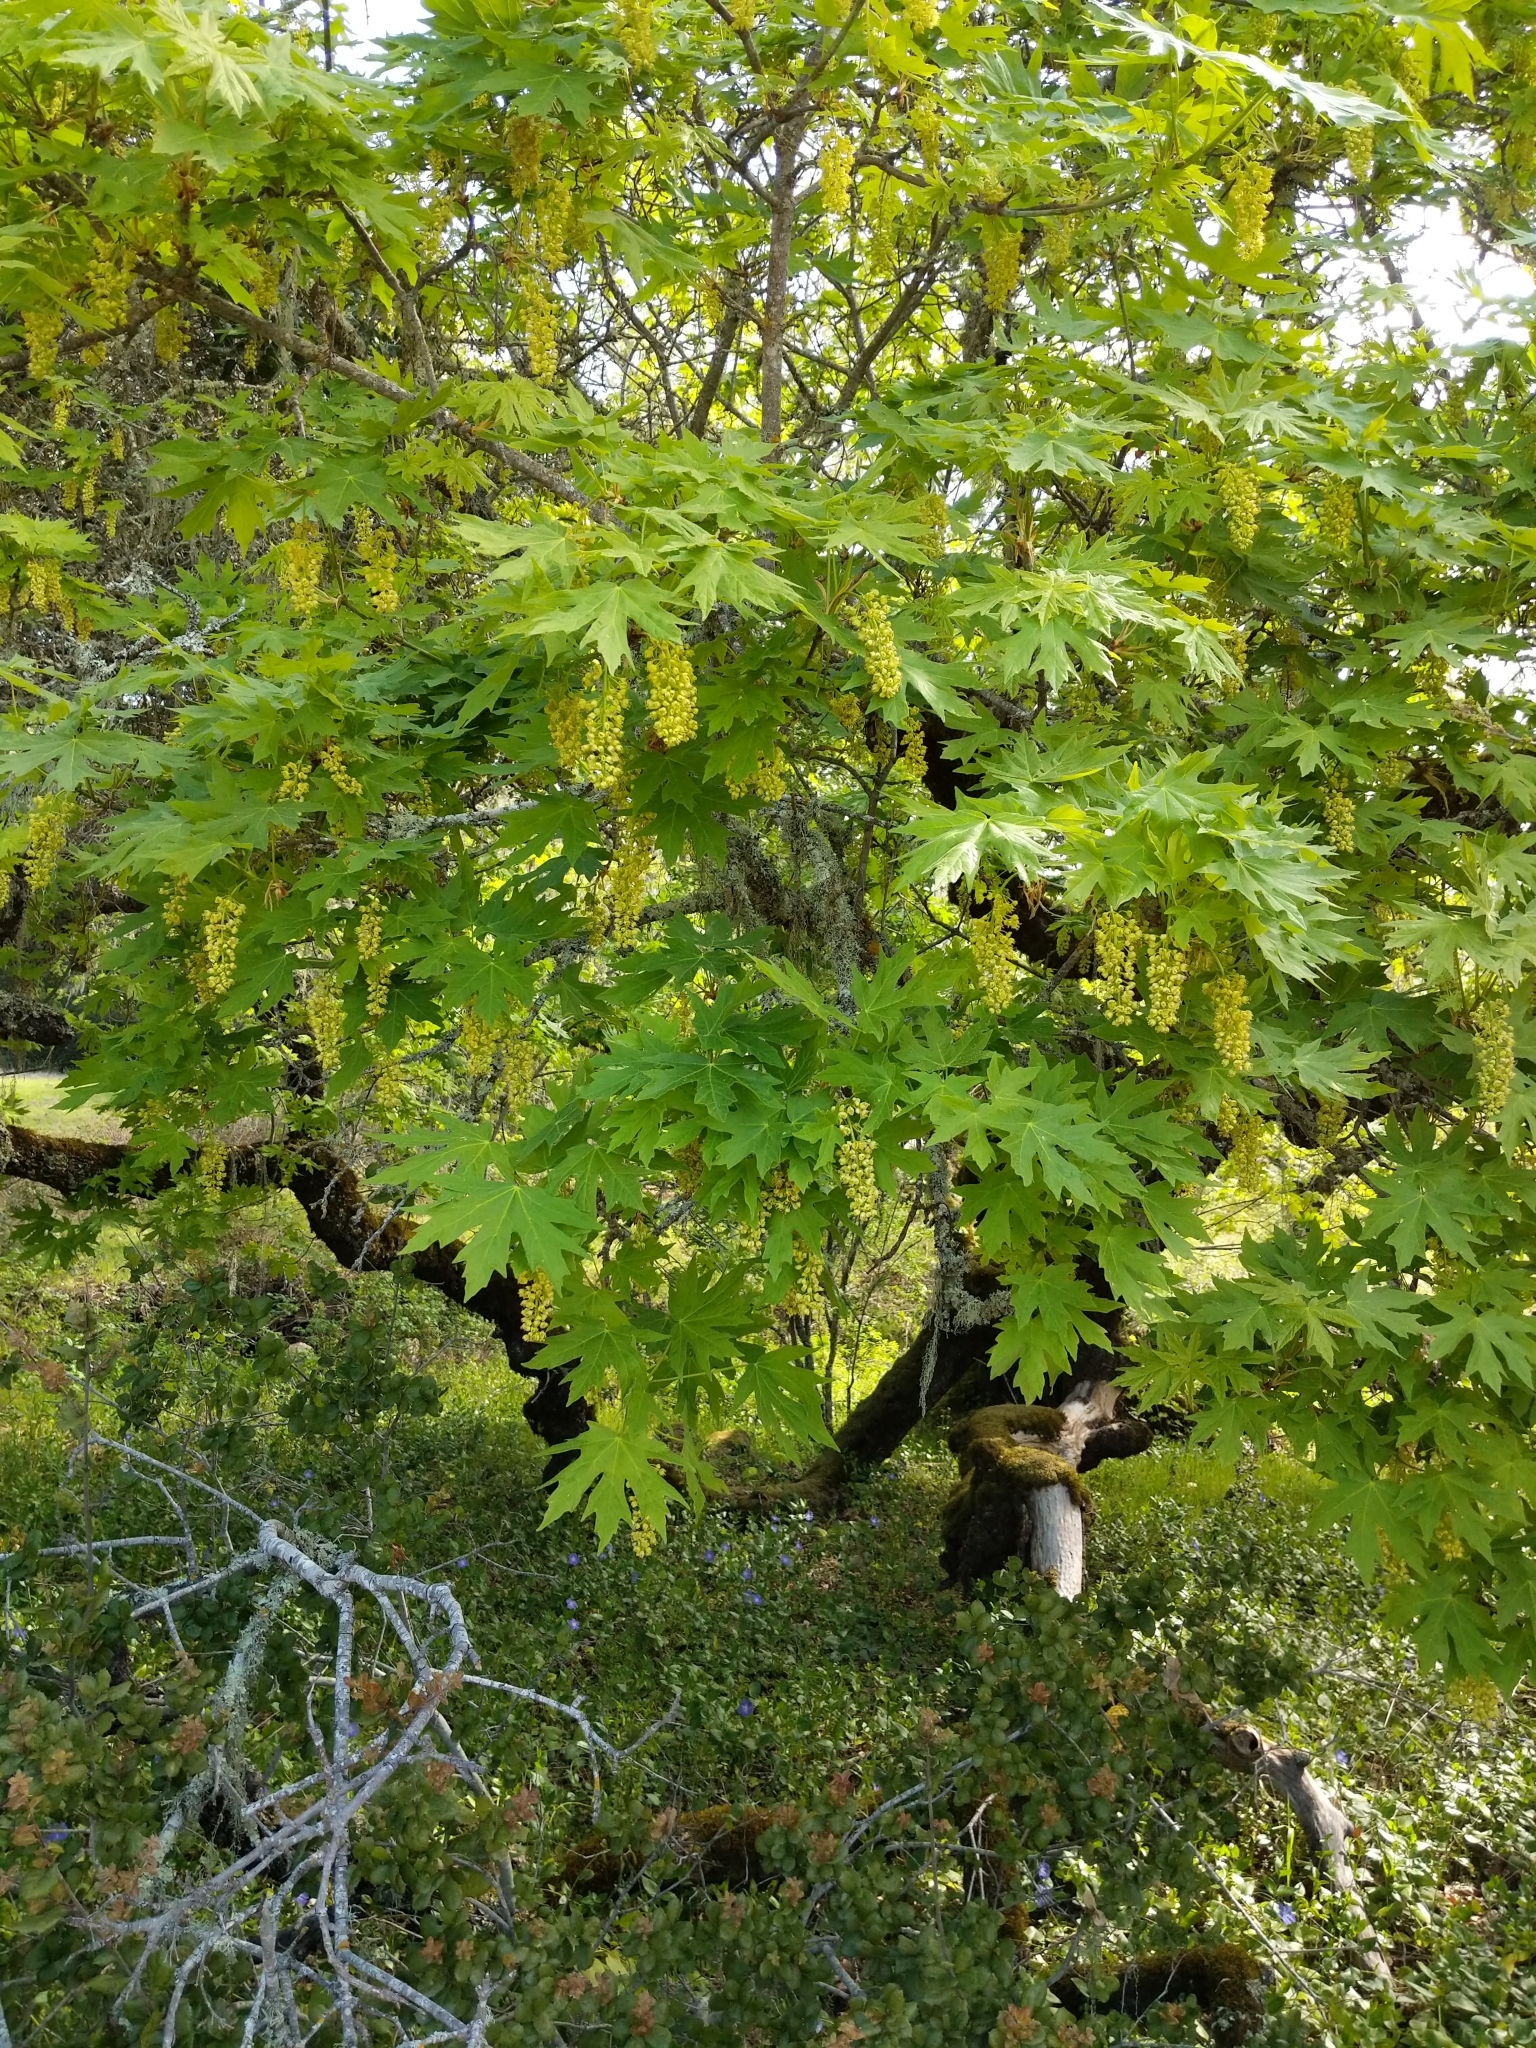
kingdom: Plantae
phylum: Tracheophyta
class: Magnoliopsida
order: Sapindales
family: Sapindaceae
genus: Acer
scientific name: Acer macrophyllum
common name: Oregon maple
